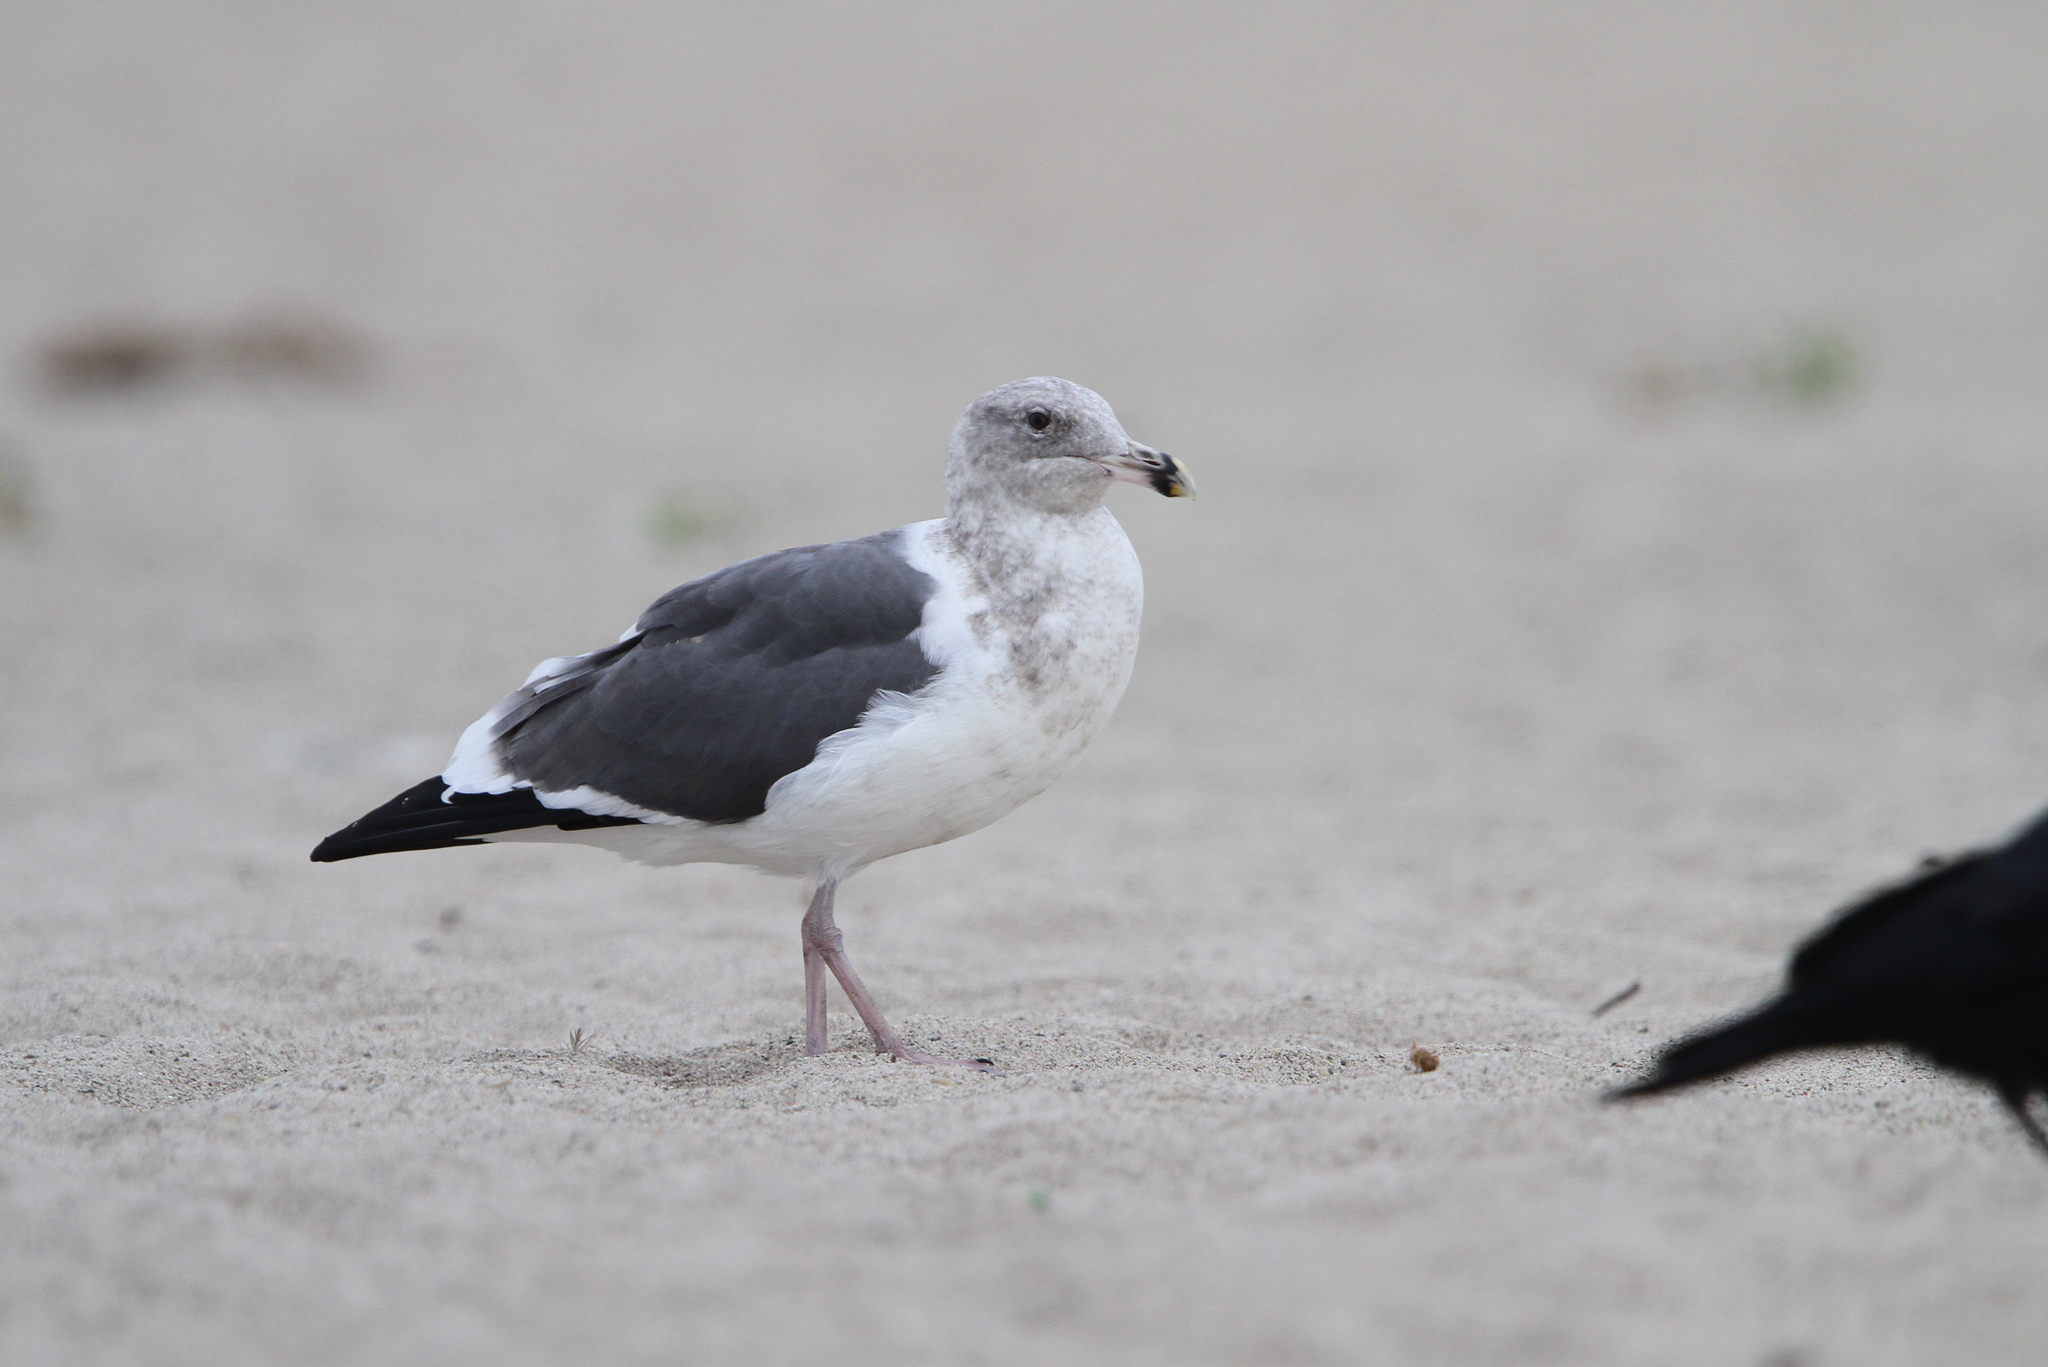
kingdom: Animalia
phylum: Chordata
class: Aves
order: Charadriiformes
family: Laridae
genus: Larus
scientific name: Larus occidentalis
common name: Western gull
